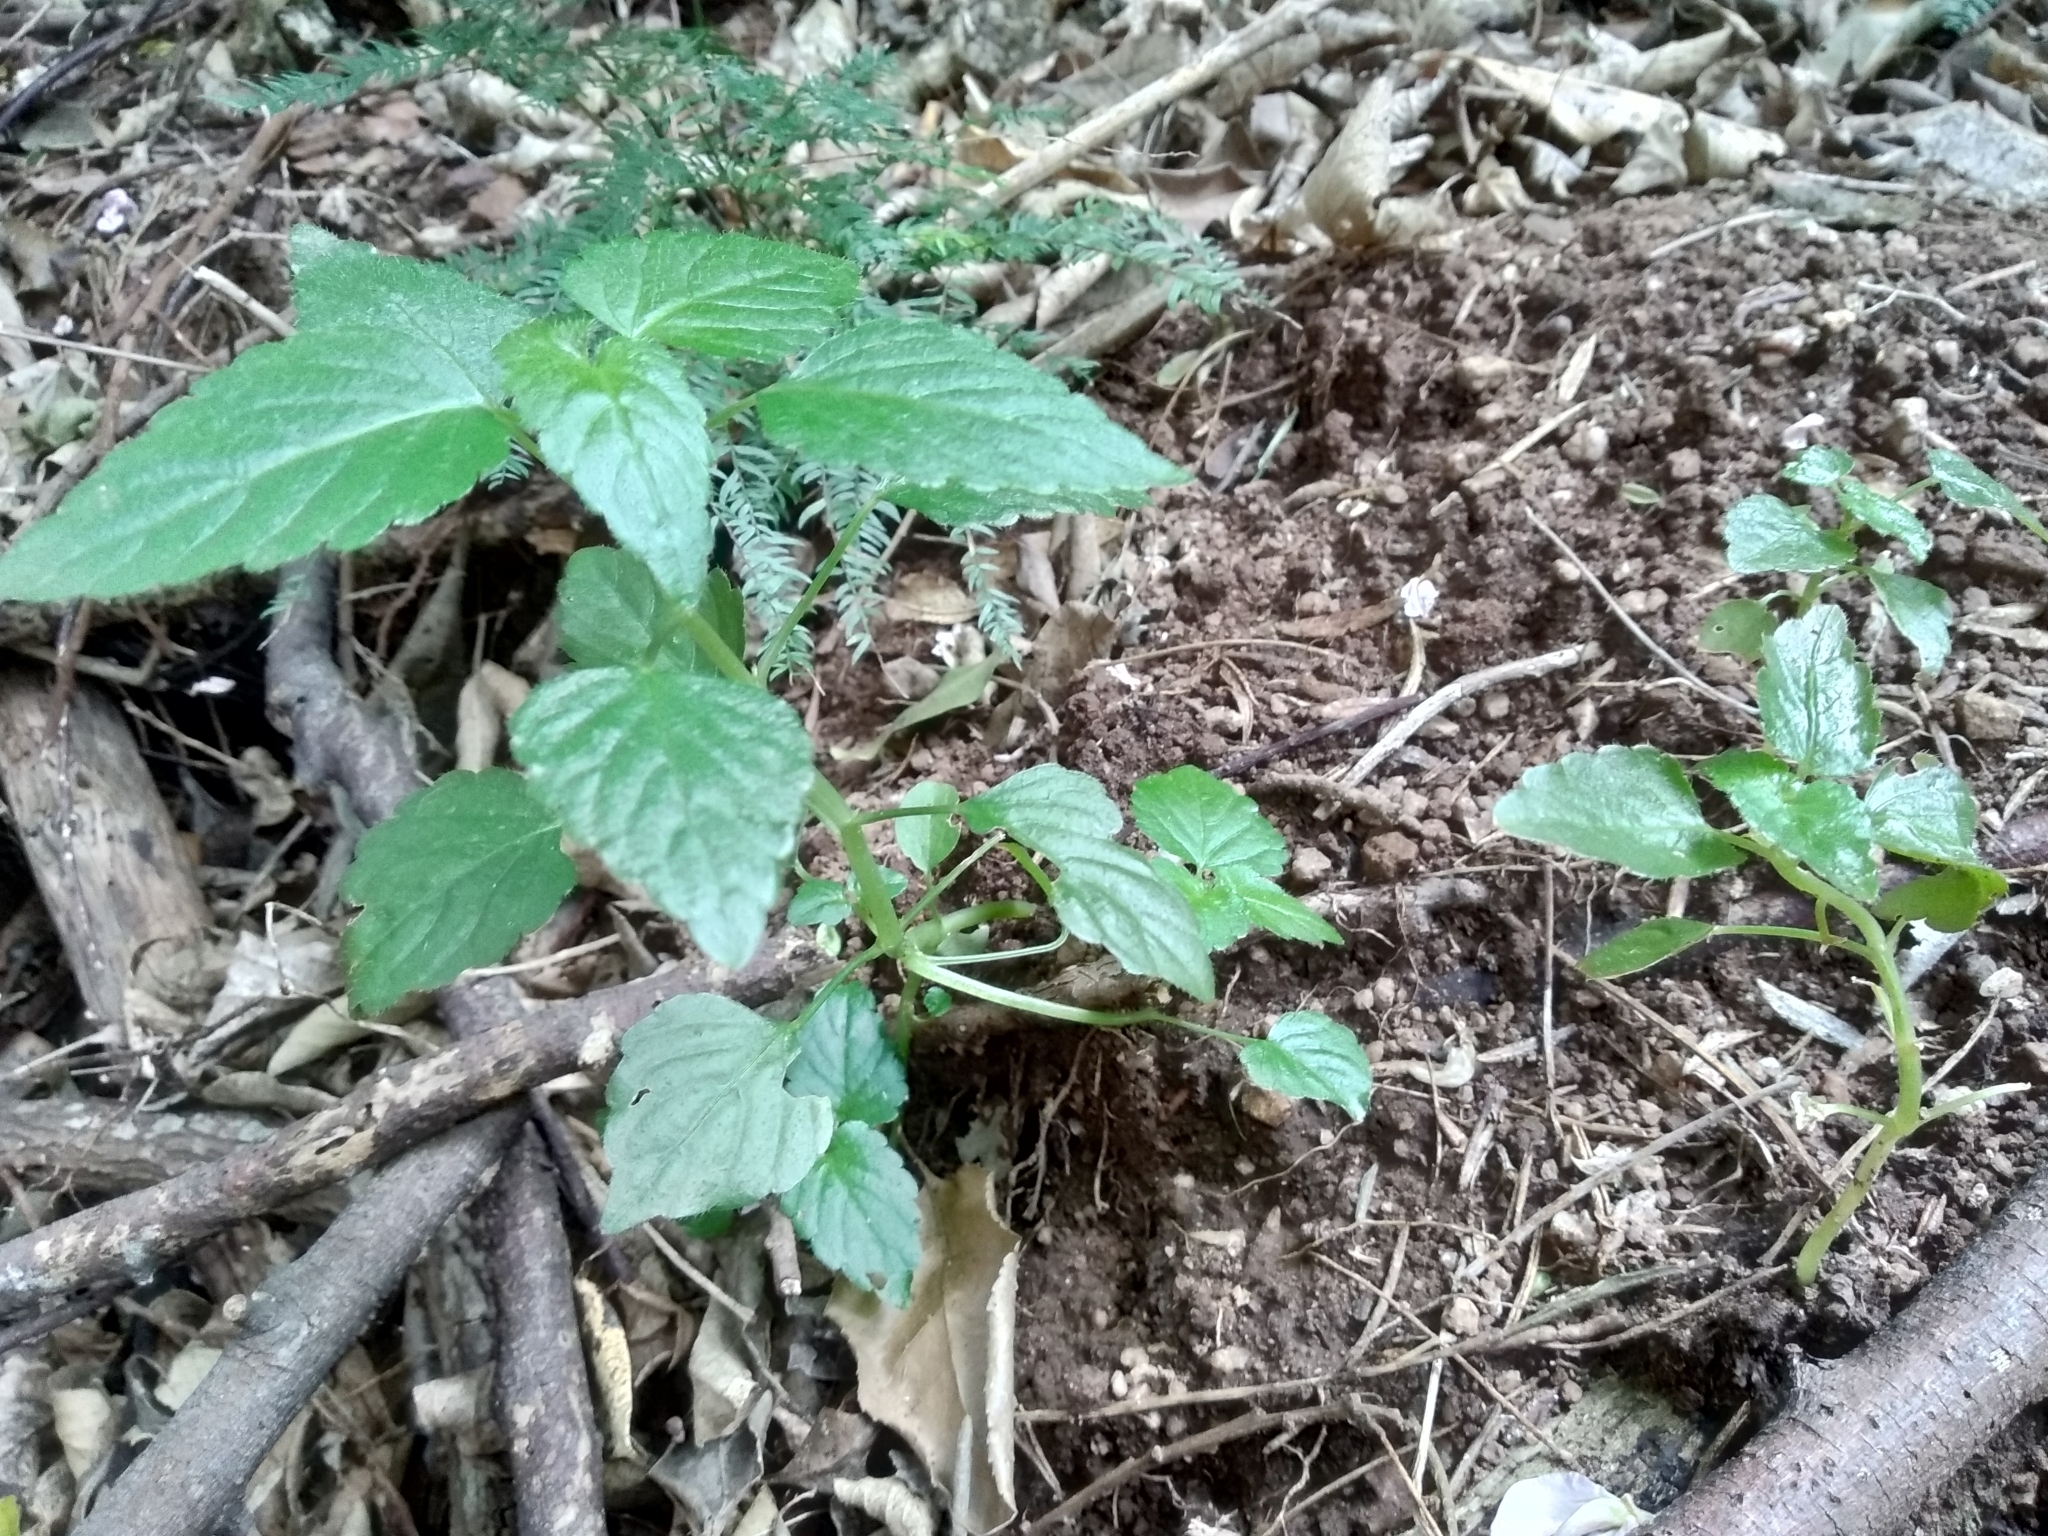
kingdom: Plantae
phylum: Tracheophyta
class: Magnoliopsida
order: Malpighiales
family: Euphorbiaceae
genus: Leidesia
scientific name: Leidesia procumbens
